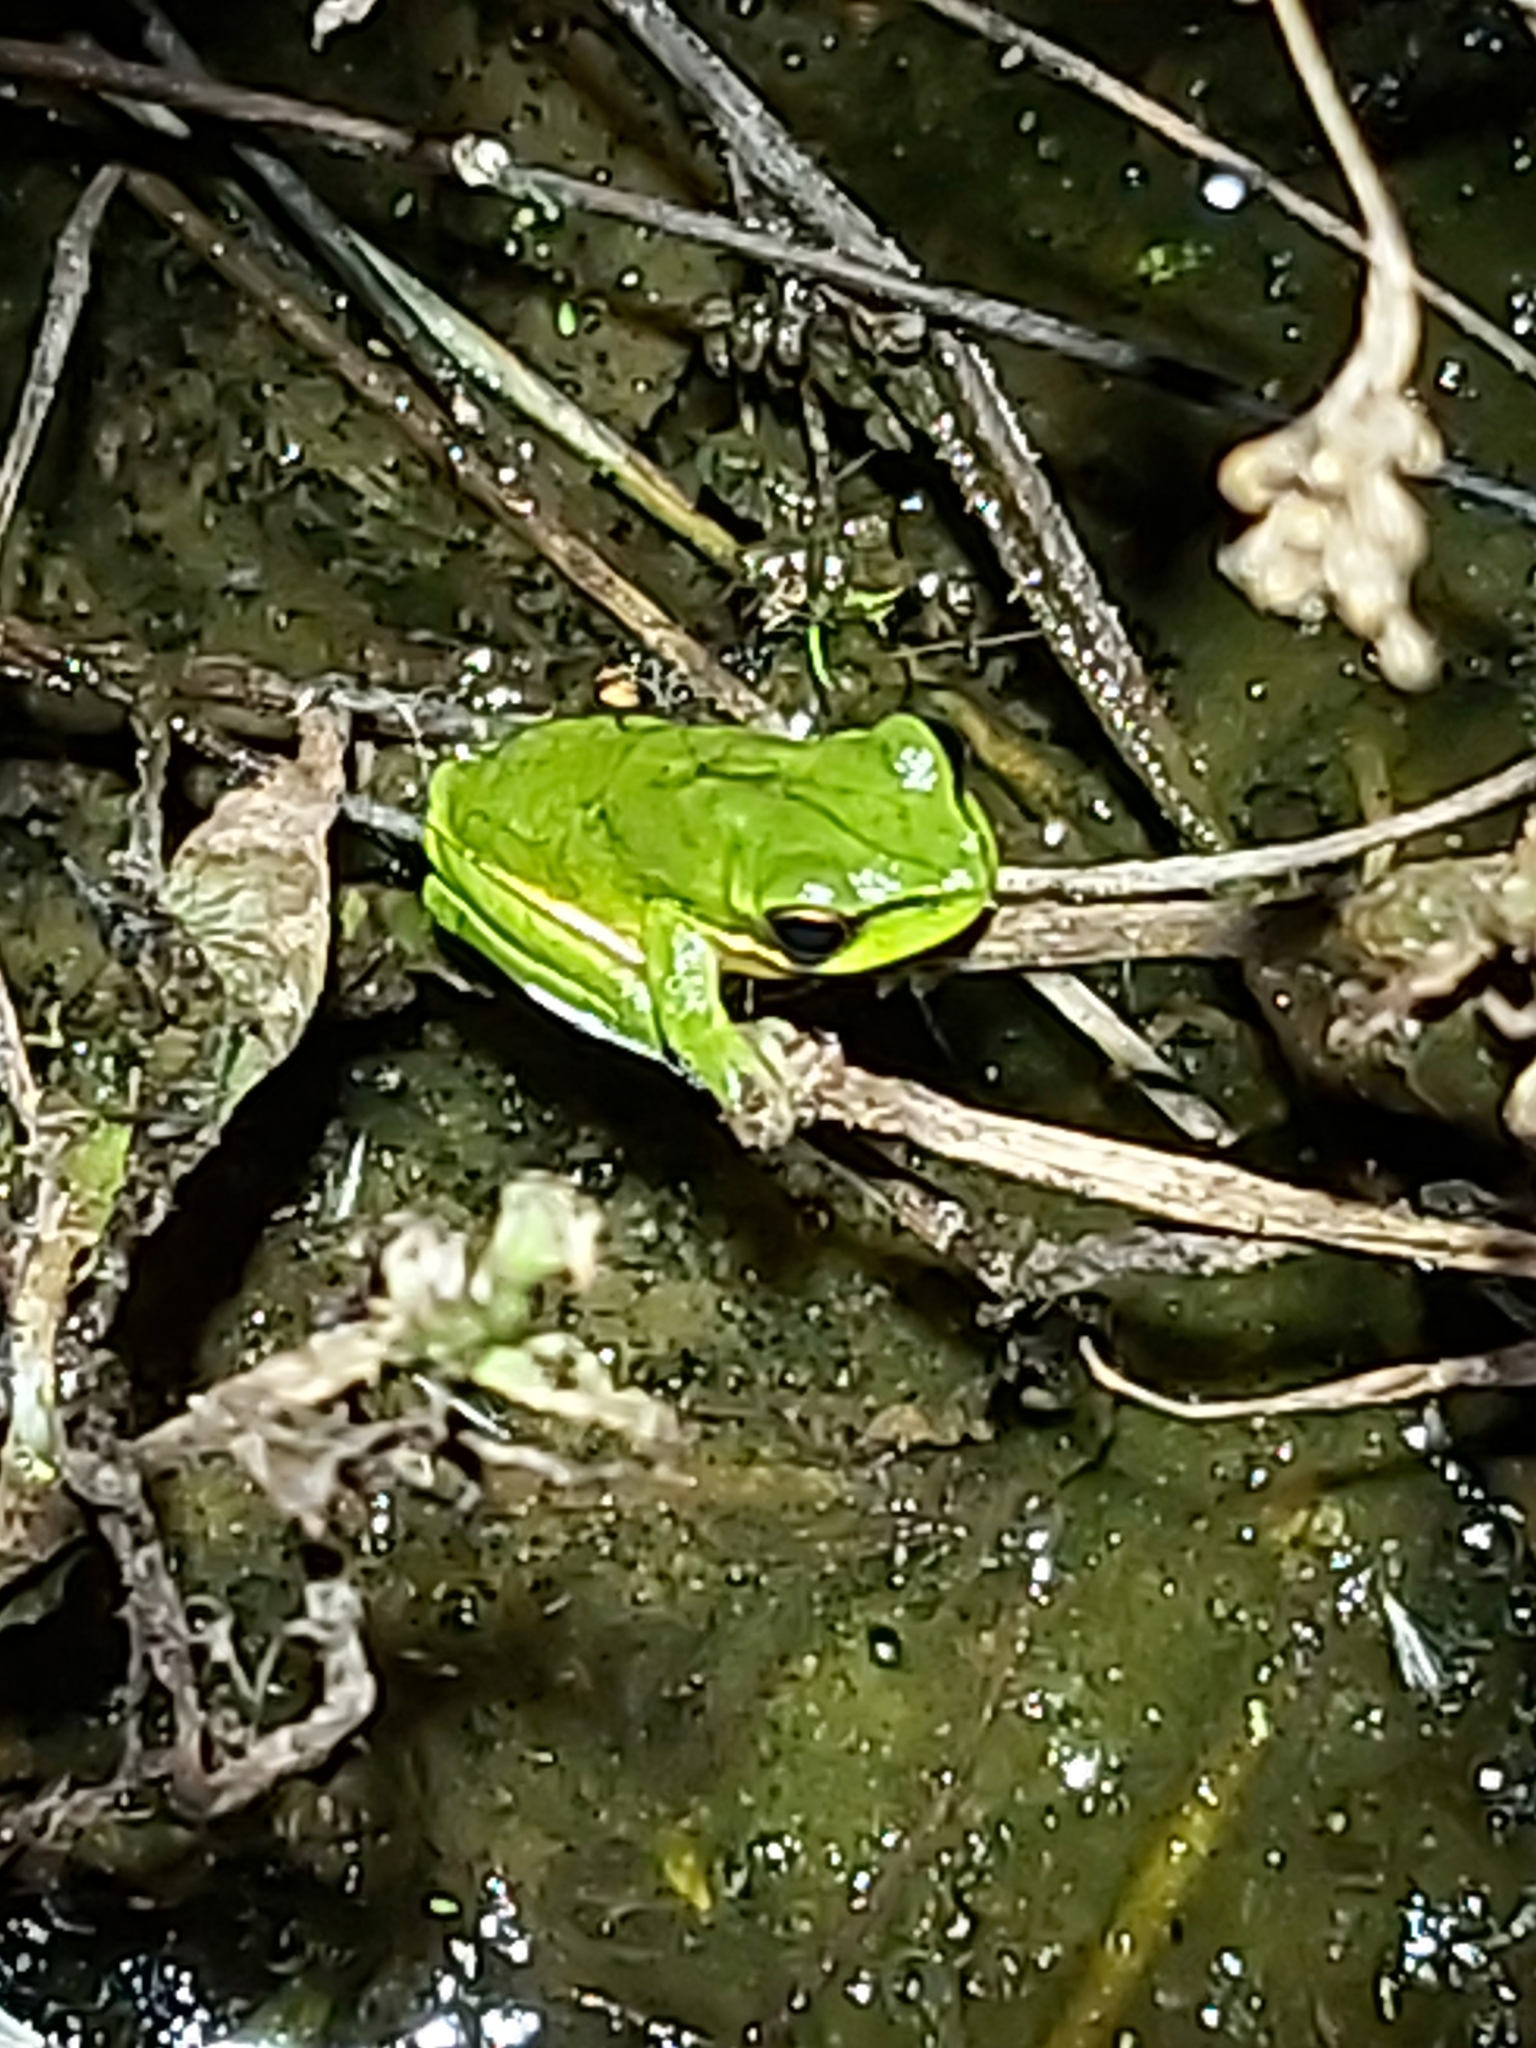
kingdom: Animalia
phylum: Chordata
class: Amphibia
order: Anura
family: Pelodryadidae
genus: Litoria
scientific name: Litoria fallax
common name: Eastern dwarf treefrog
